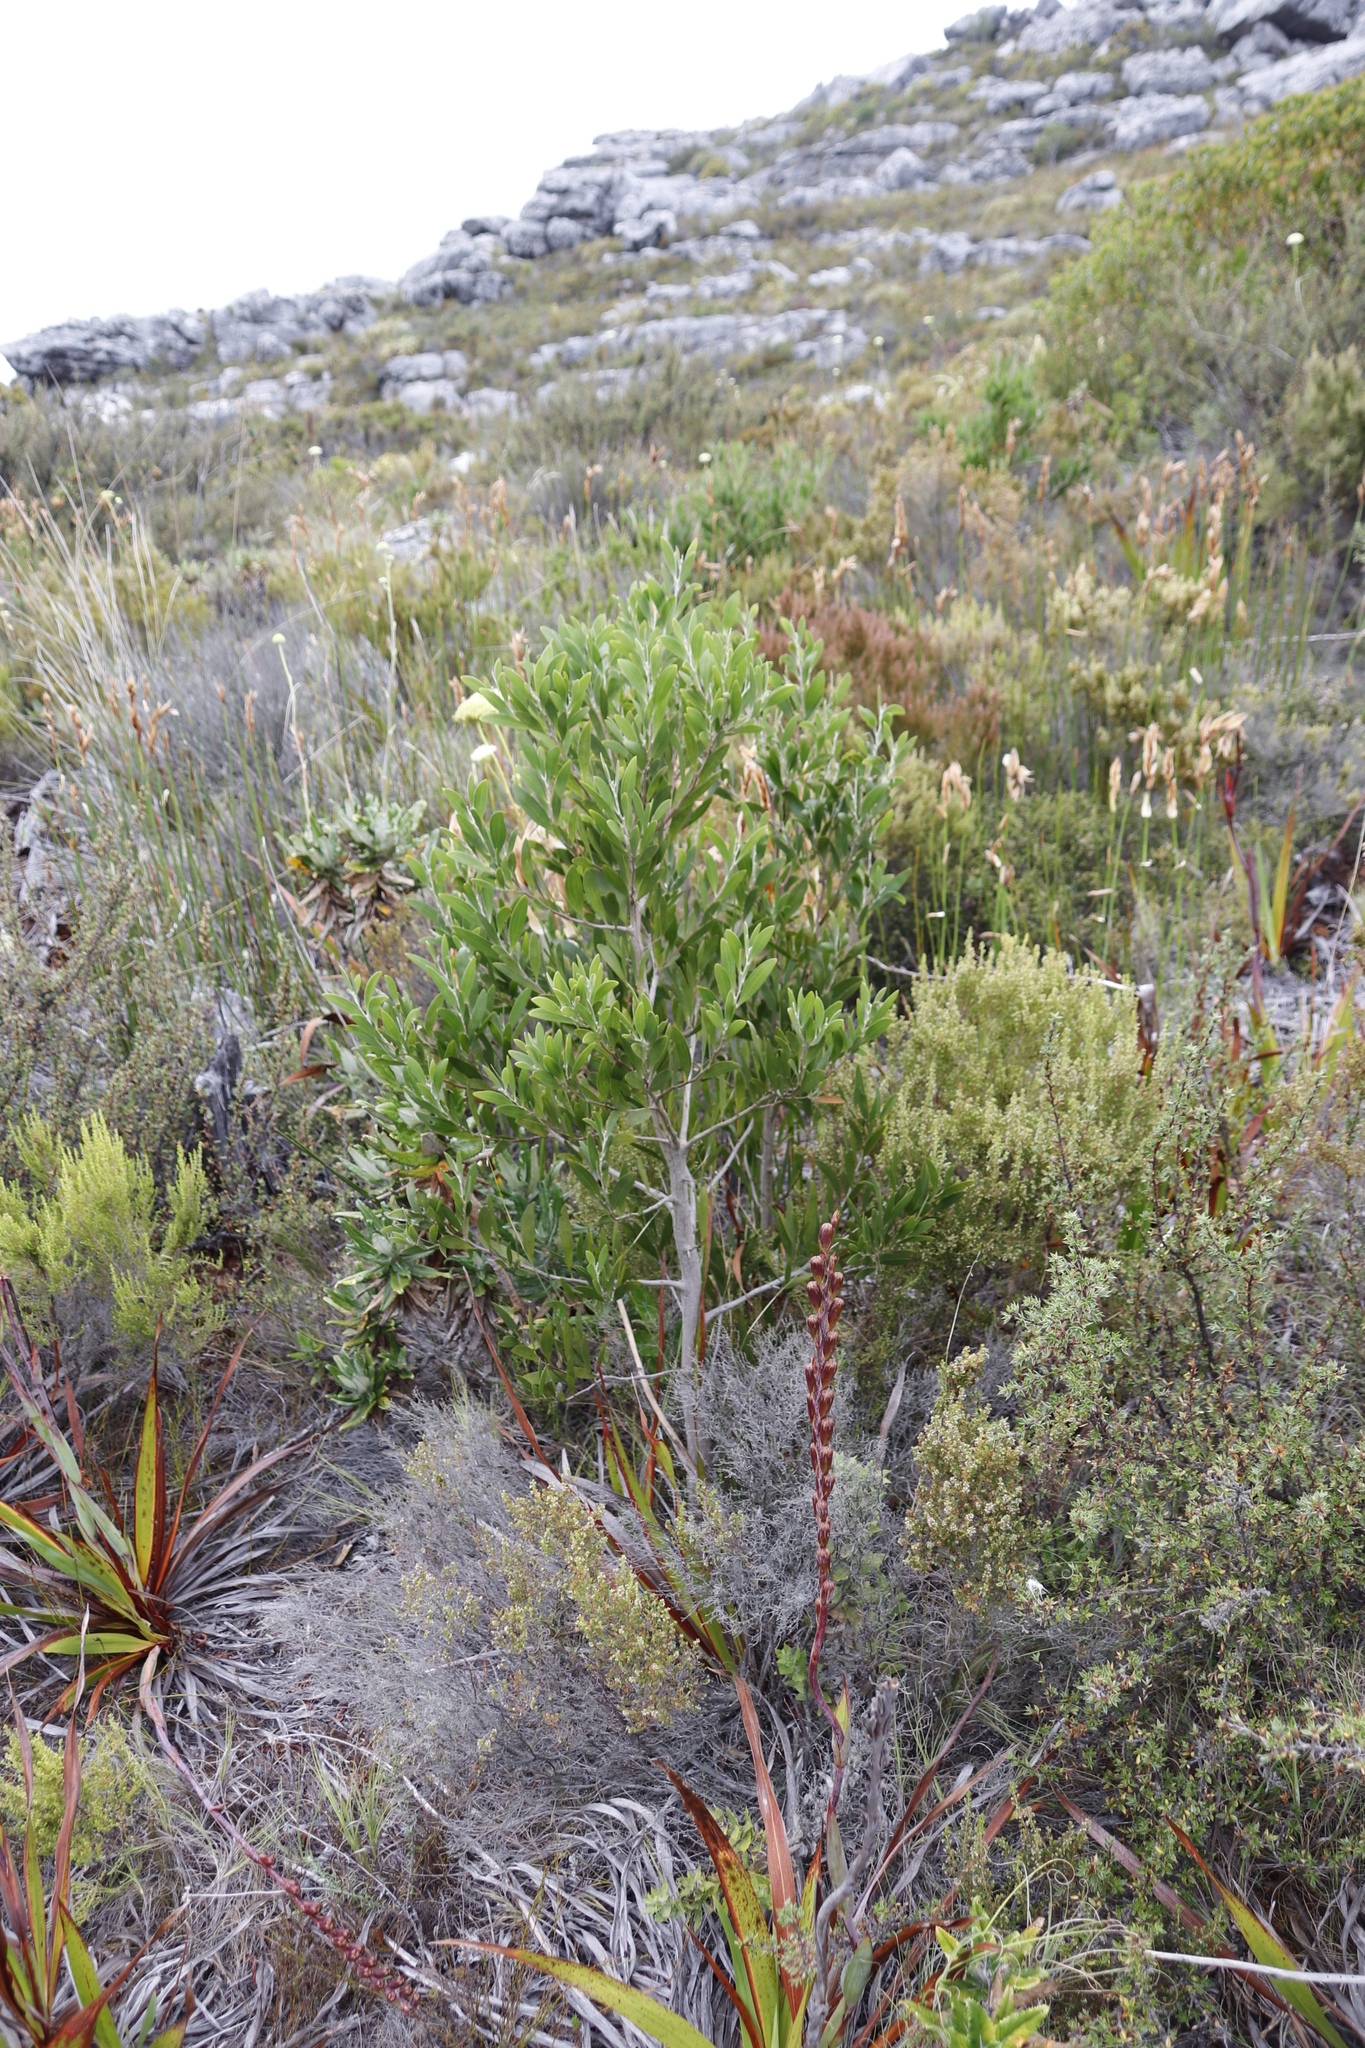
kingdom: Plantae
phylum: Tracheophyta
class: Magnoliopsida
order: Fabales
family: Fabaceae
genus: Acacia
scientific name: Acacia melanoxylon
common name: Blackwood
